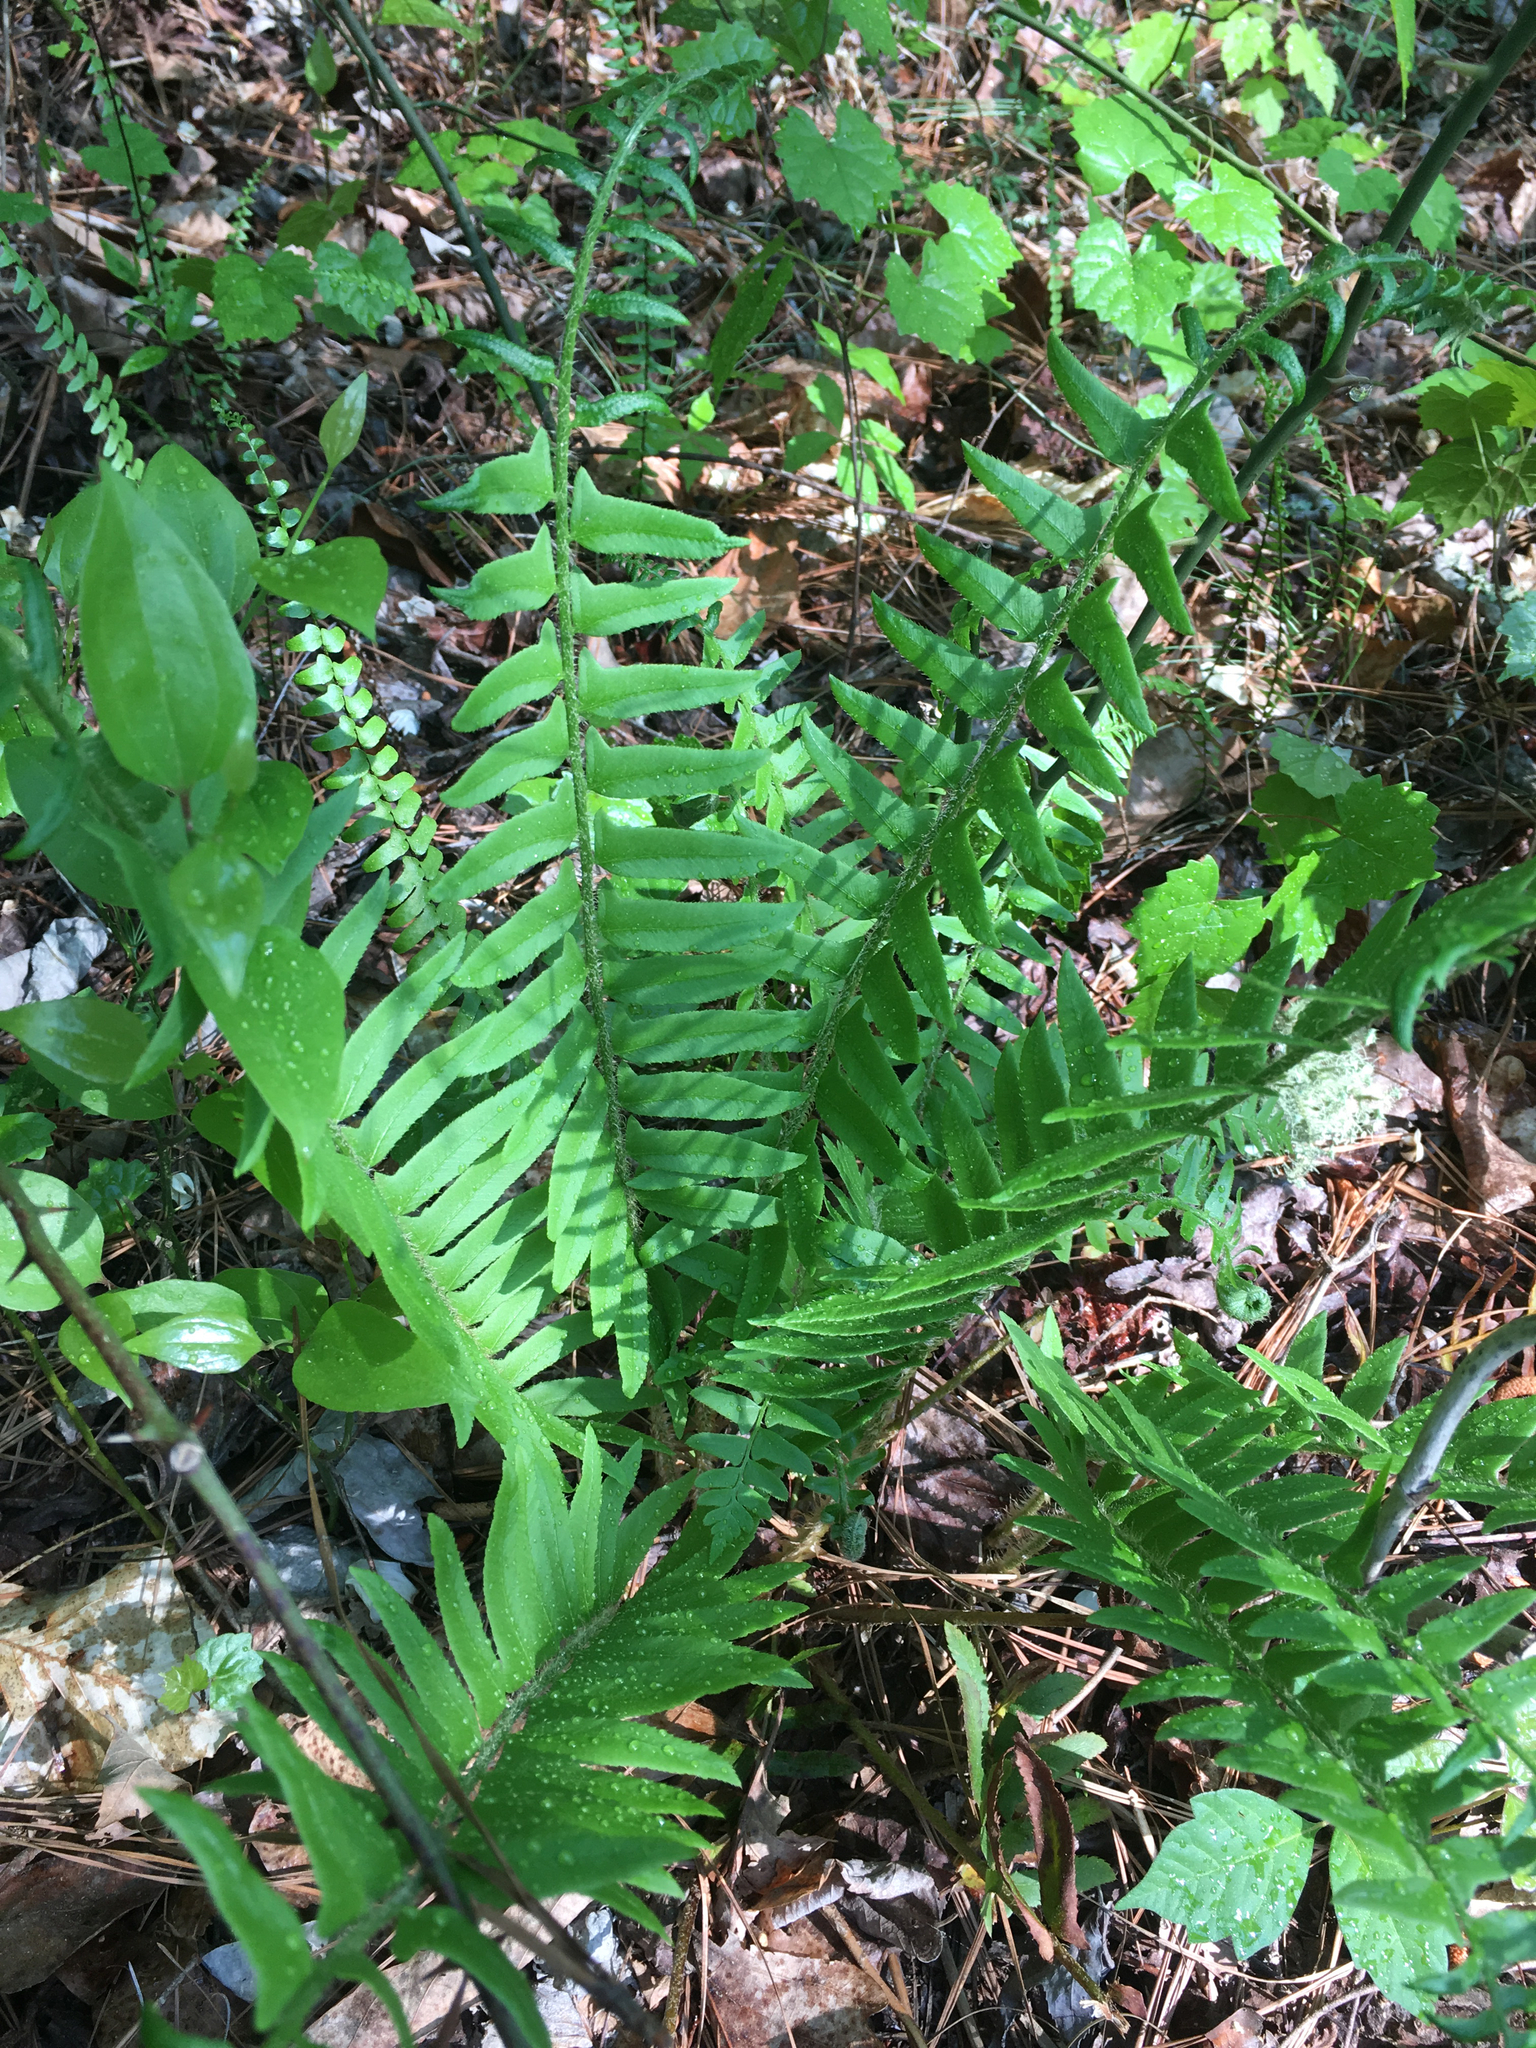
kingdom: Plantae
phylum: Tracheophyta
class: Polypodiopsida
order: Polypodiales
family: Dryopteridaceae
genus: Polystichum
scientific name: Polystichum acrostichoides
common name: Christmas fern
